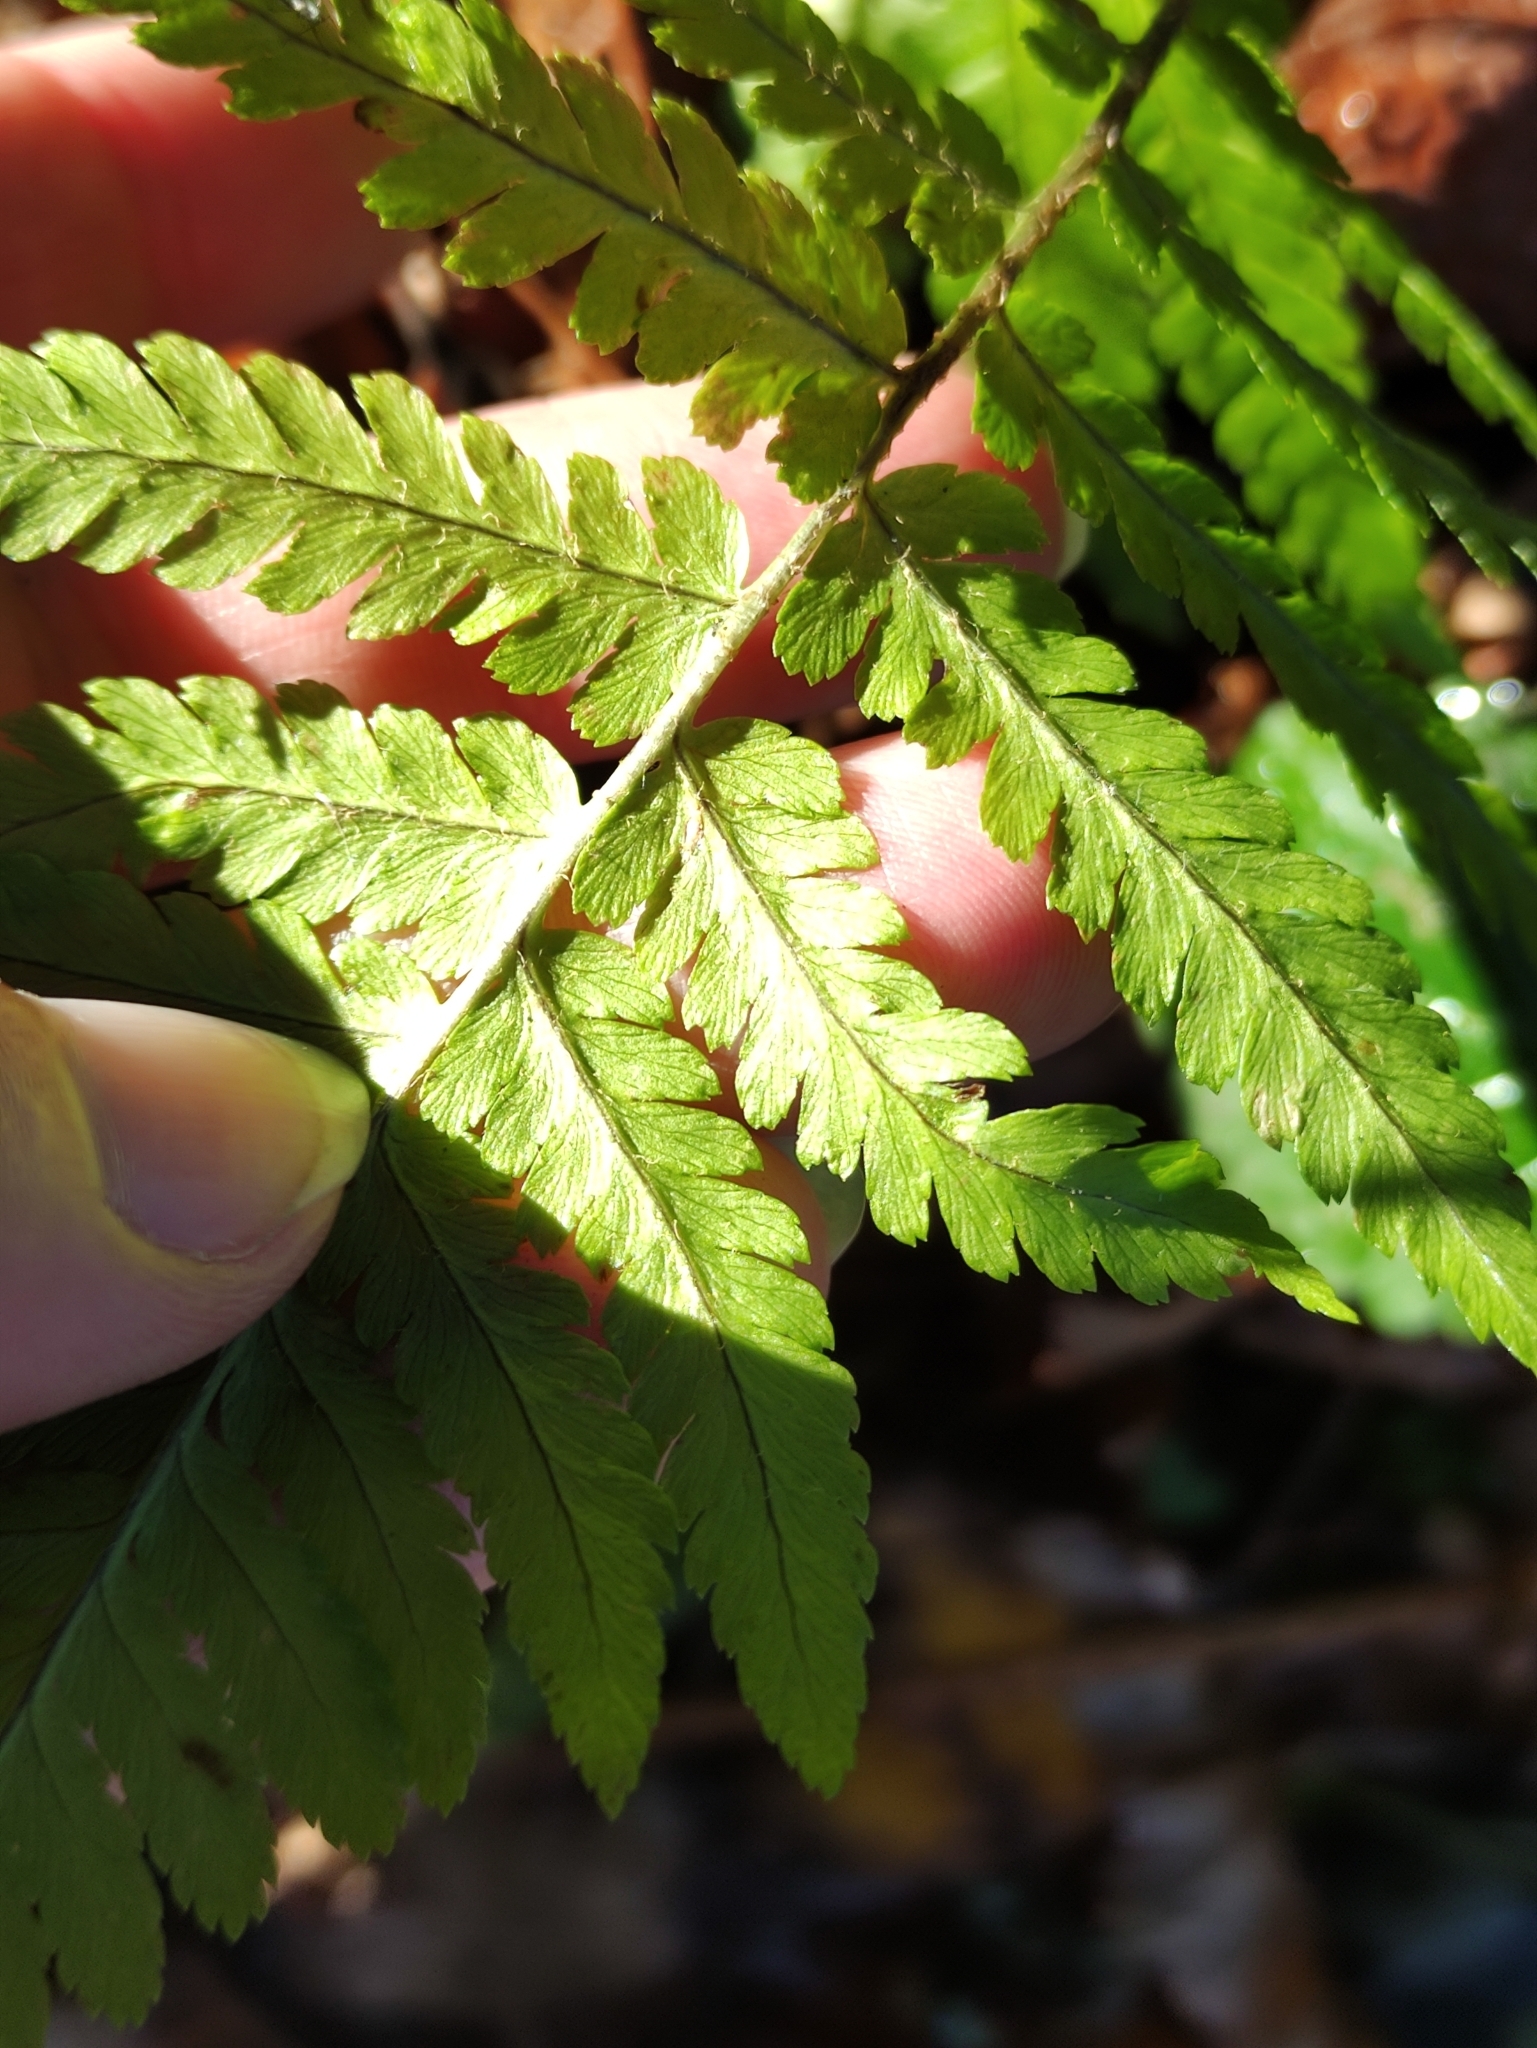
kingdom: Plantae
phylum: Tracheophyta
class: Polypodiopsida
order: Polypodiales
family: Dryopteridaceae
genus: Dryopteris
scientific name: Dryopteris filix-mas
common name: Male fern
